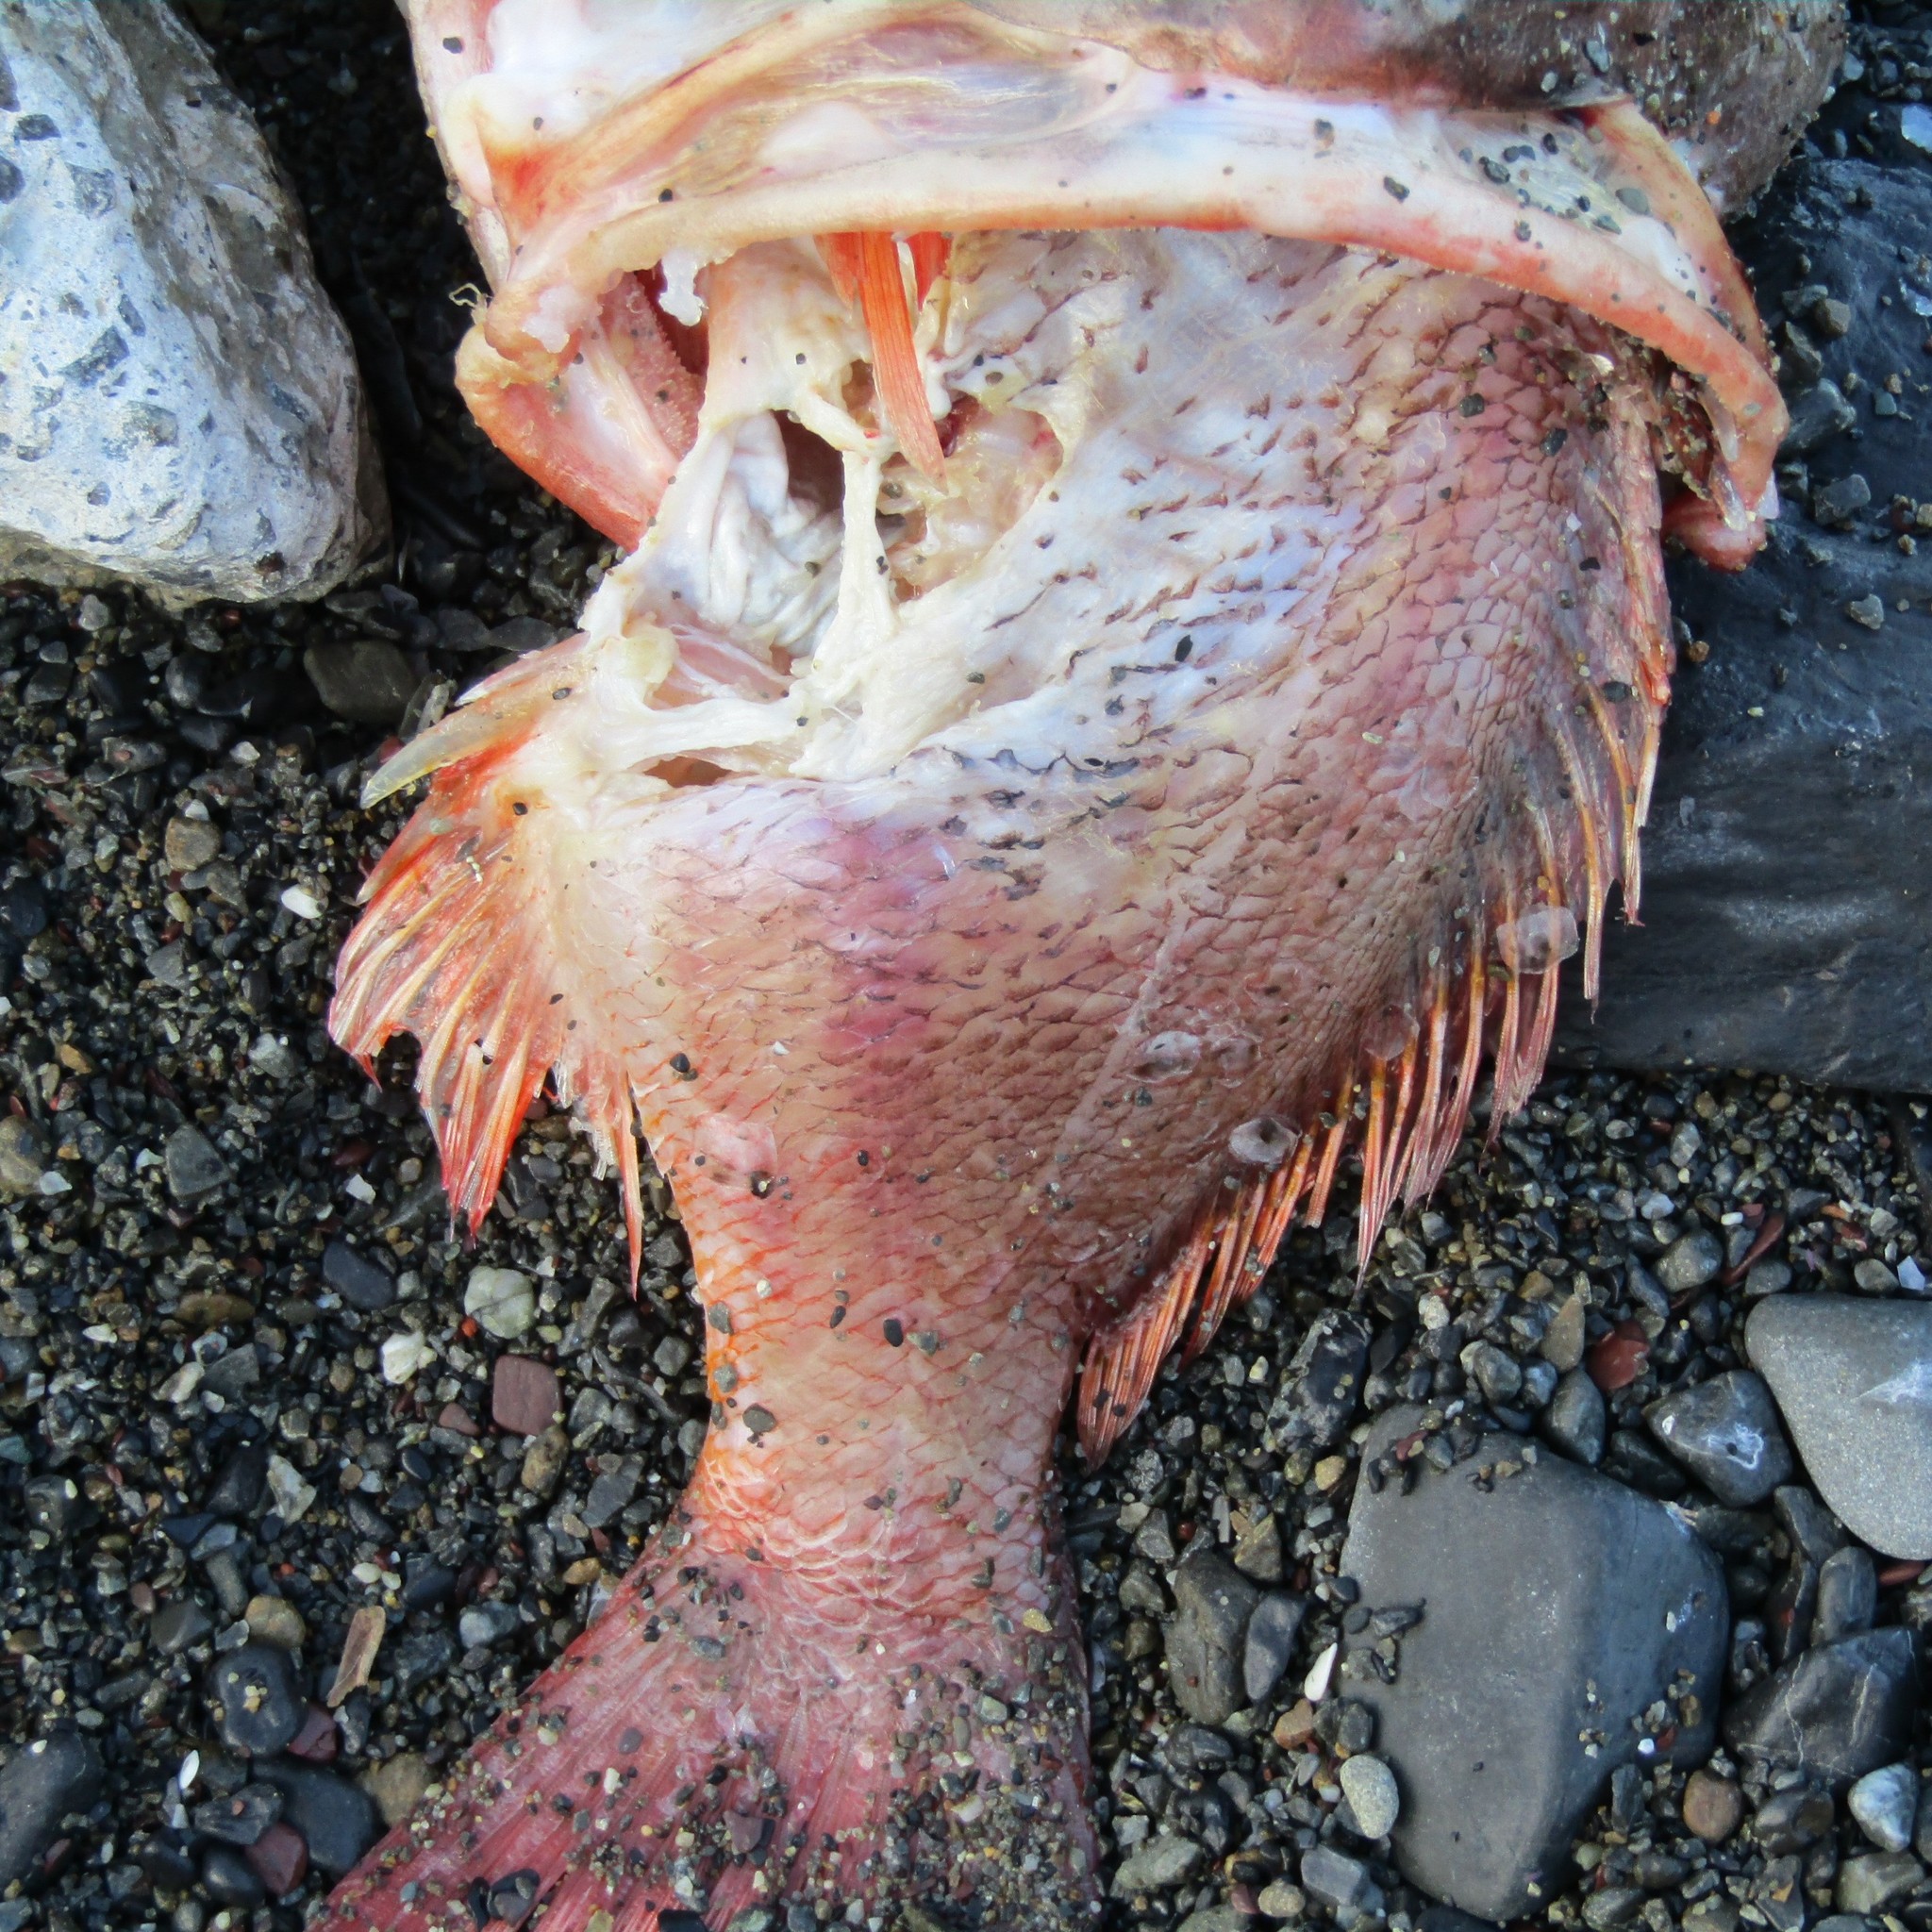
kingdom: Animalia
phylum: Chordata
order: Perciformes
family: Serranidae
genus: Caesioperca
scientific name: Caesioperca lepidoptera
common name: Butterfly perch
